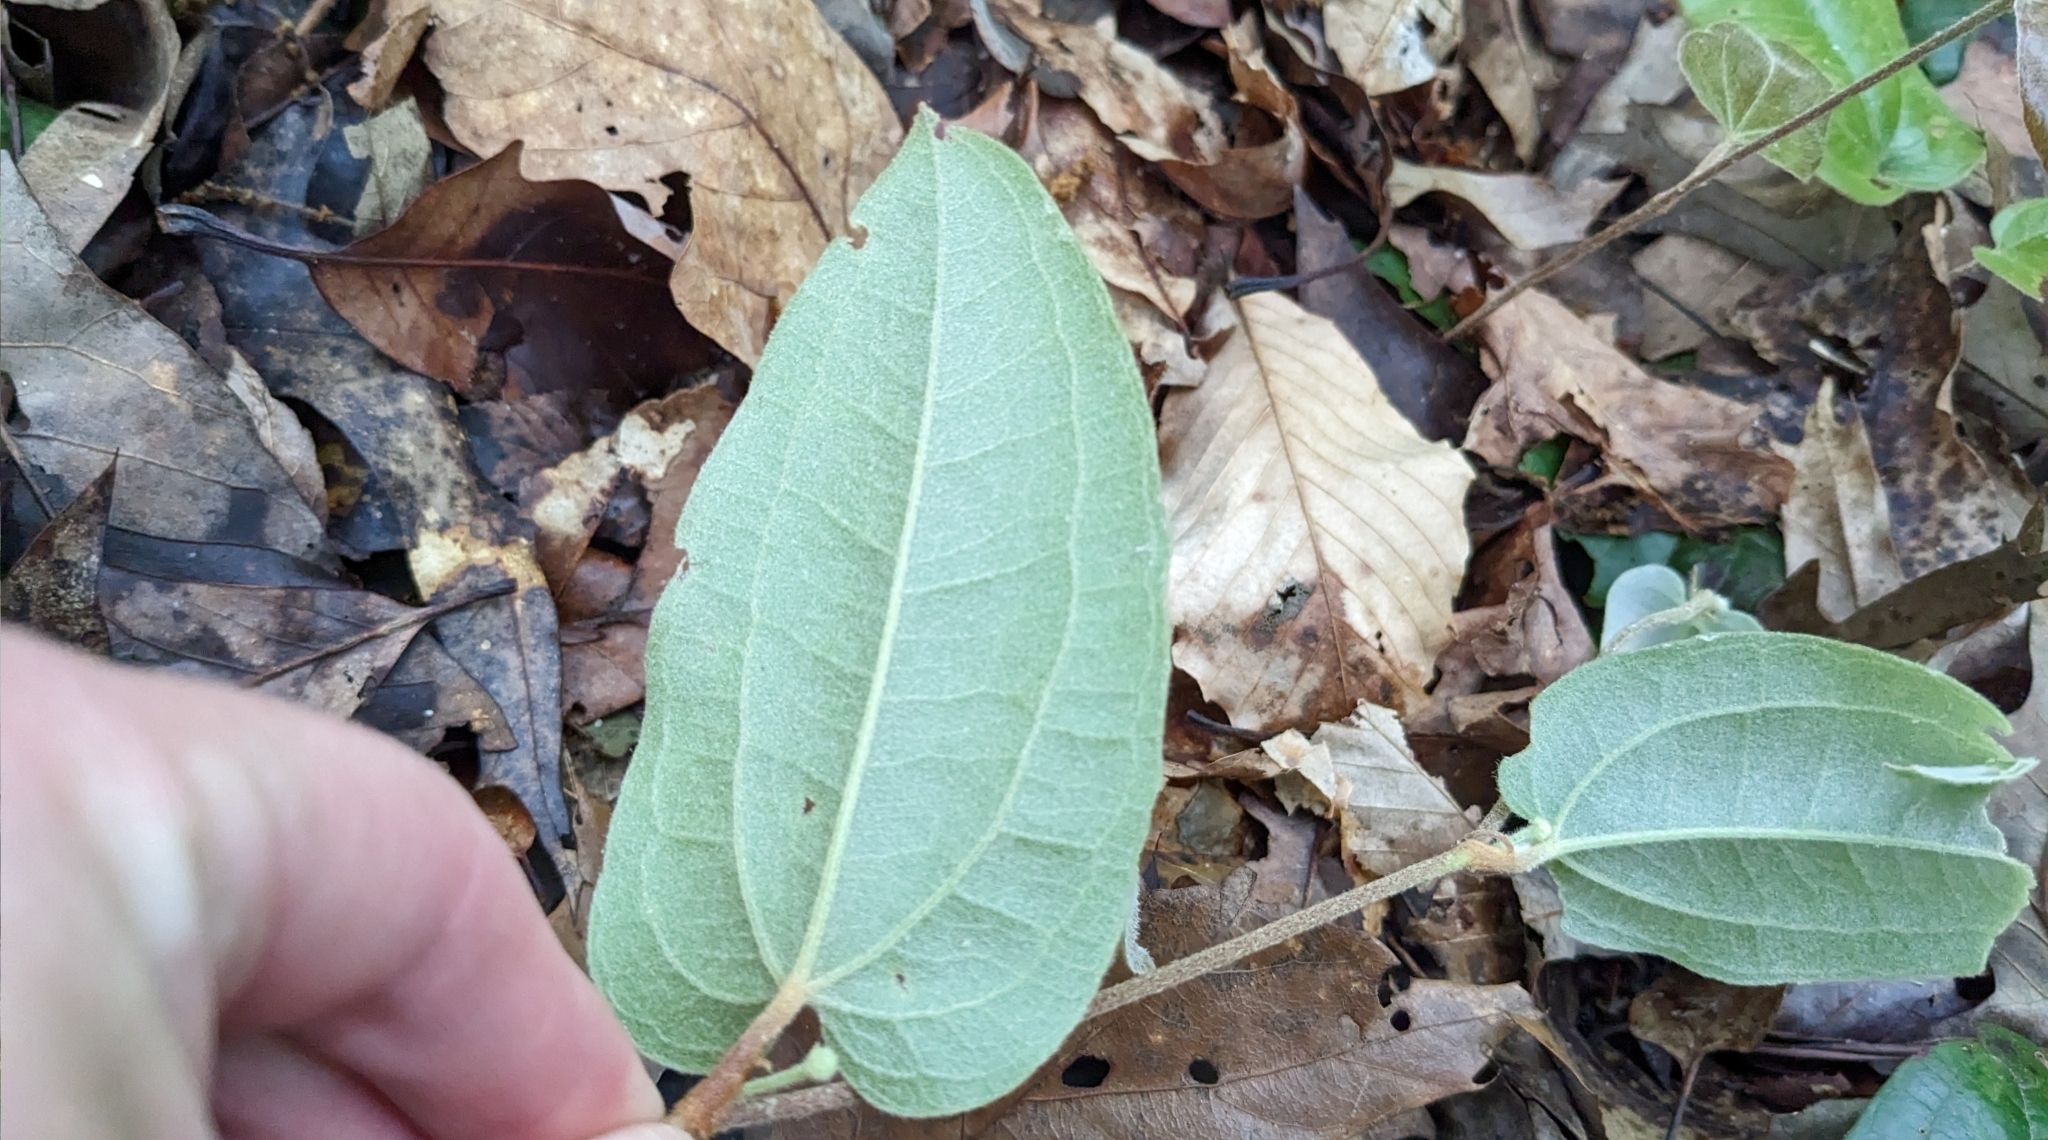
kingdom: Plantae
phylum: Tracheophyta
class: Liliopsida
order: Liliales
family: Smilacaceae
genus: Smilax
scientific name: Smilax pumila
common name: Sarsaparilla-vine
